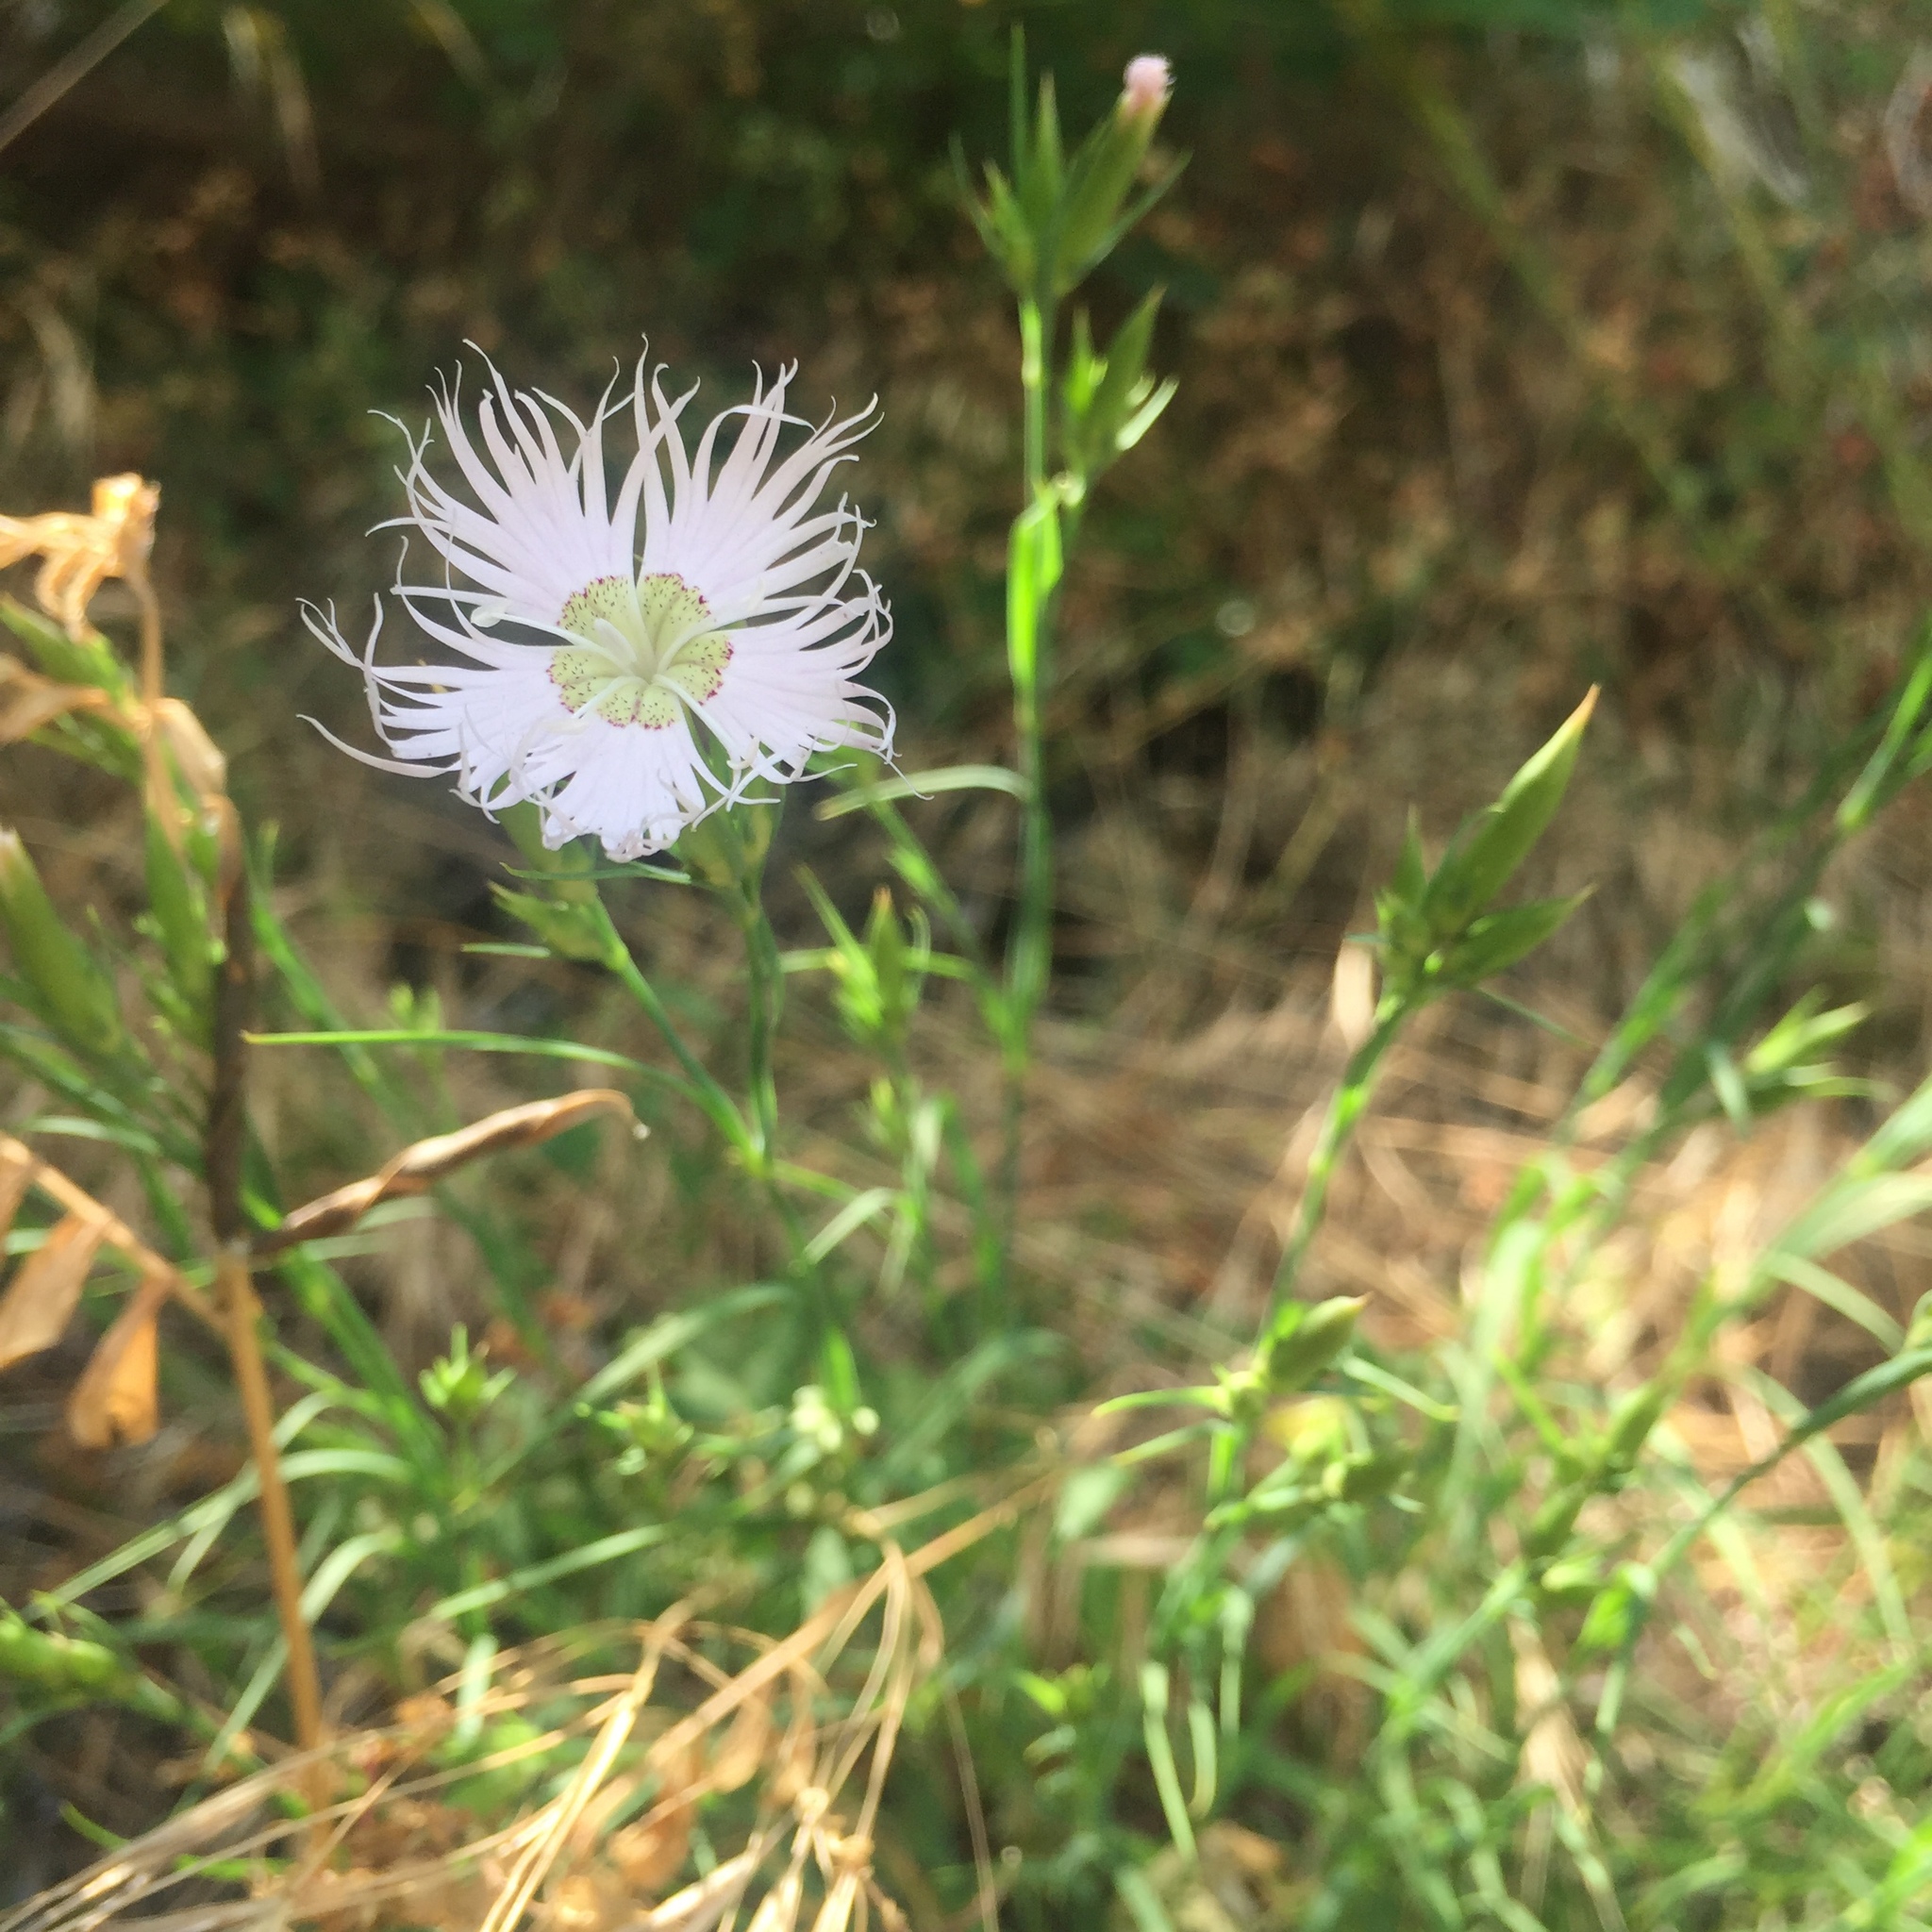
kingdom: Plantae
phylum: Tracheophyta
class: Magnoliopsida
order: Caryophyllales
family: Caryophyllaceae
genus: Dianthus
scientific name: Dianthus hyssopifolius
